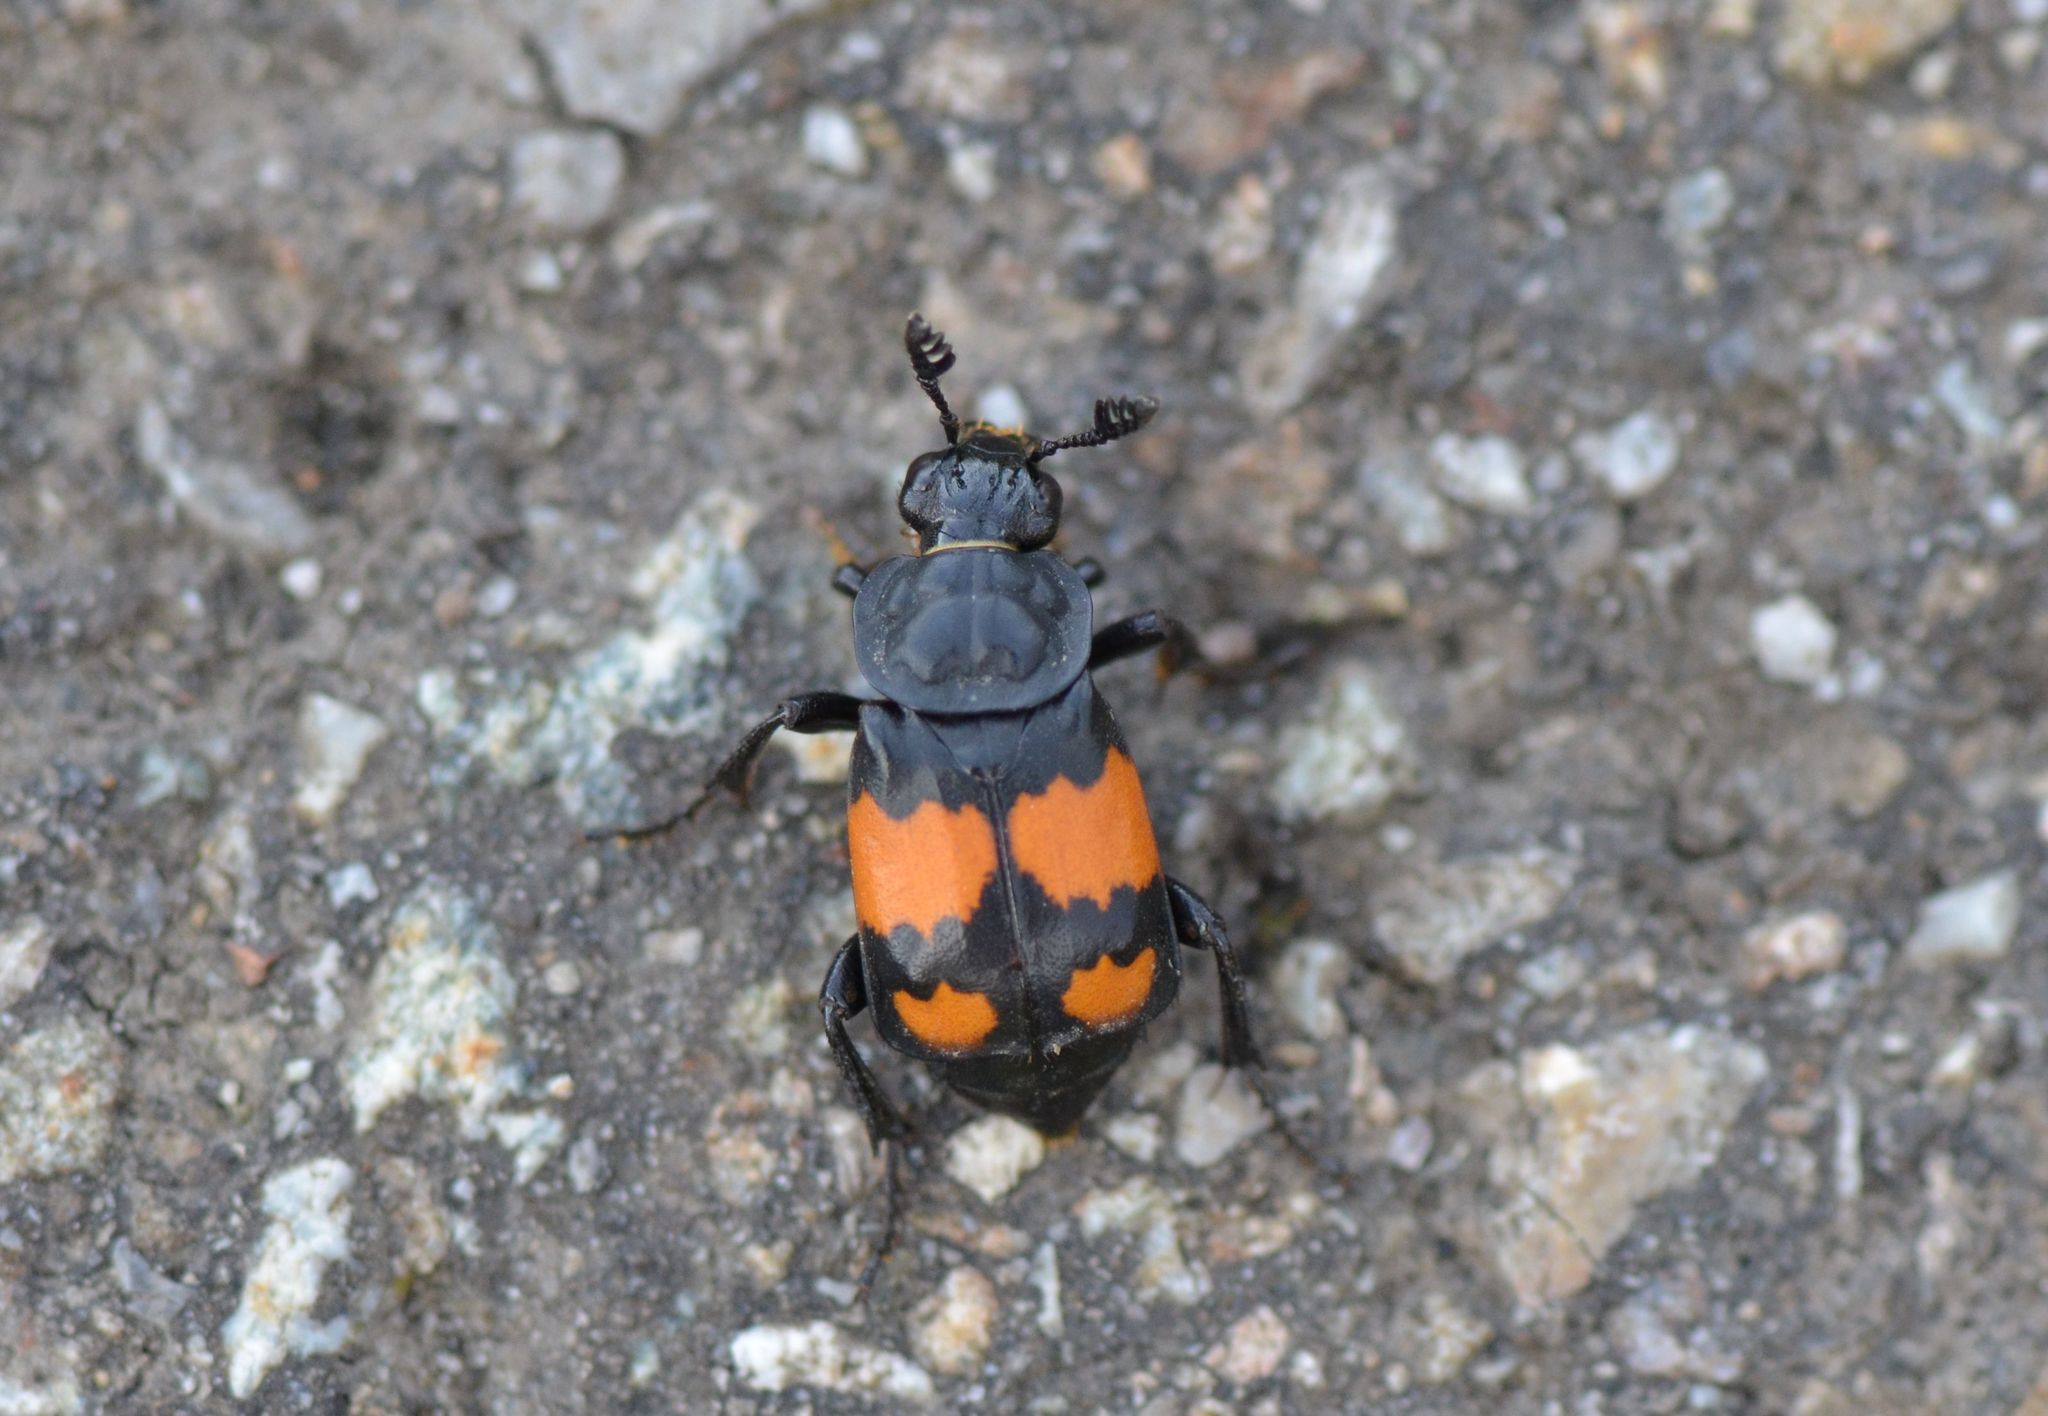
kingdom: Animalia
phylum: Arthropoda
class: Insecta
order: Coleoptera
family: Staphylinidae
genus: Nicrophorus
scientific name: Nicrophorus vespilloides
